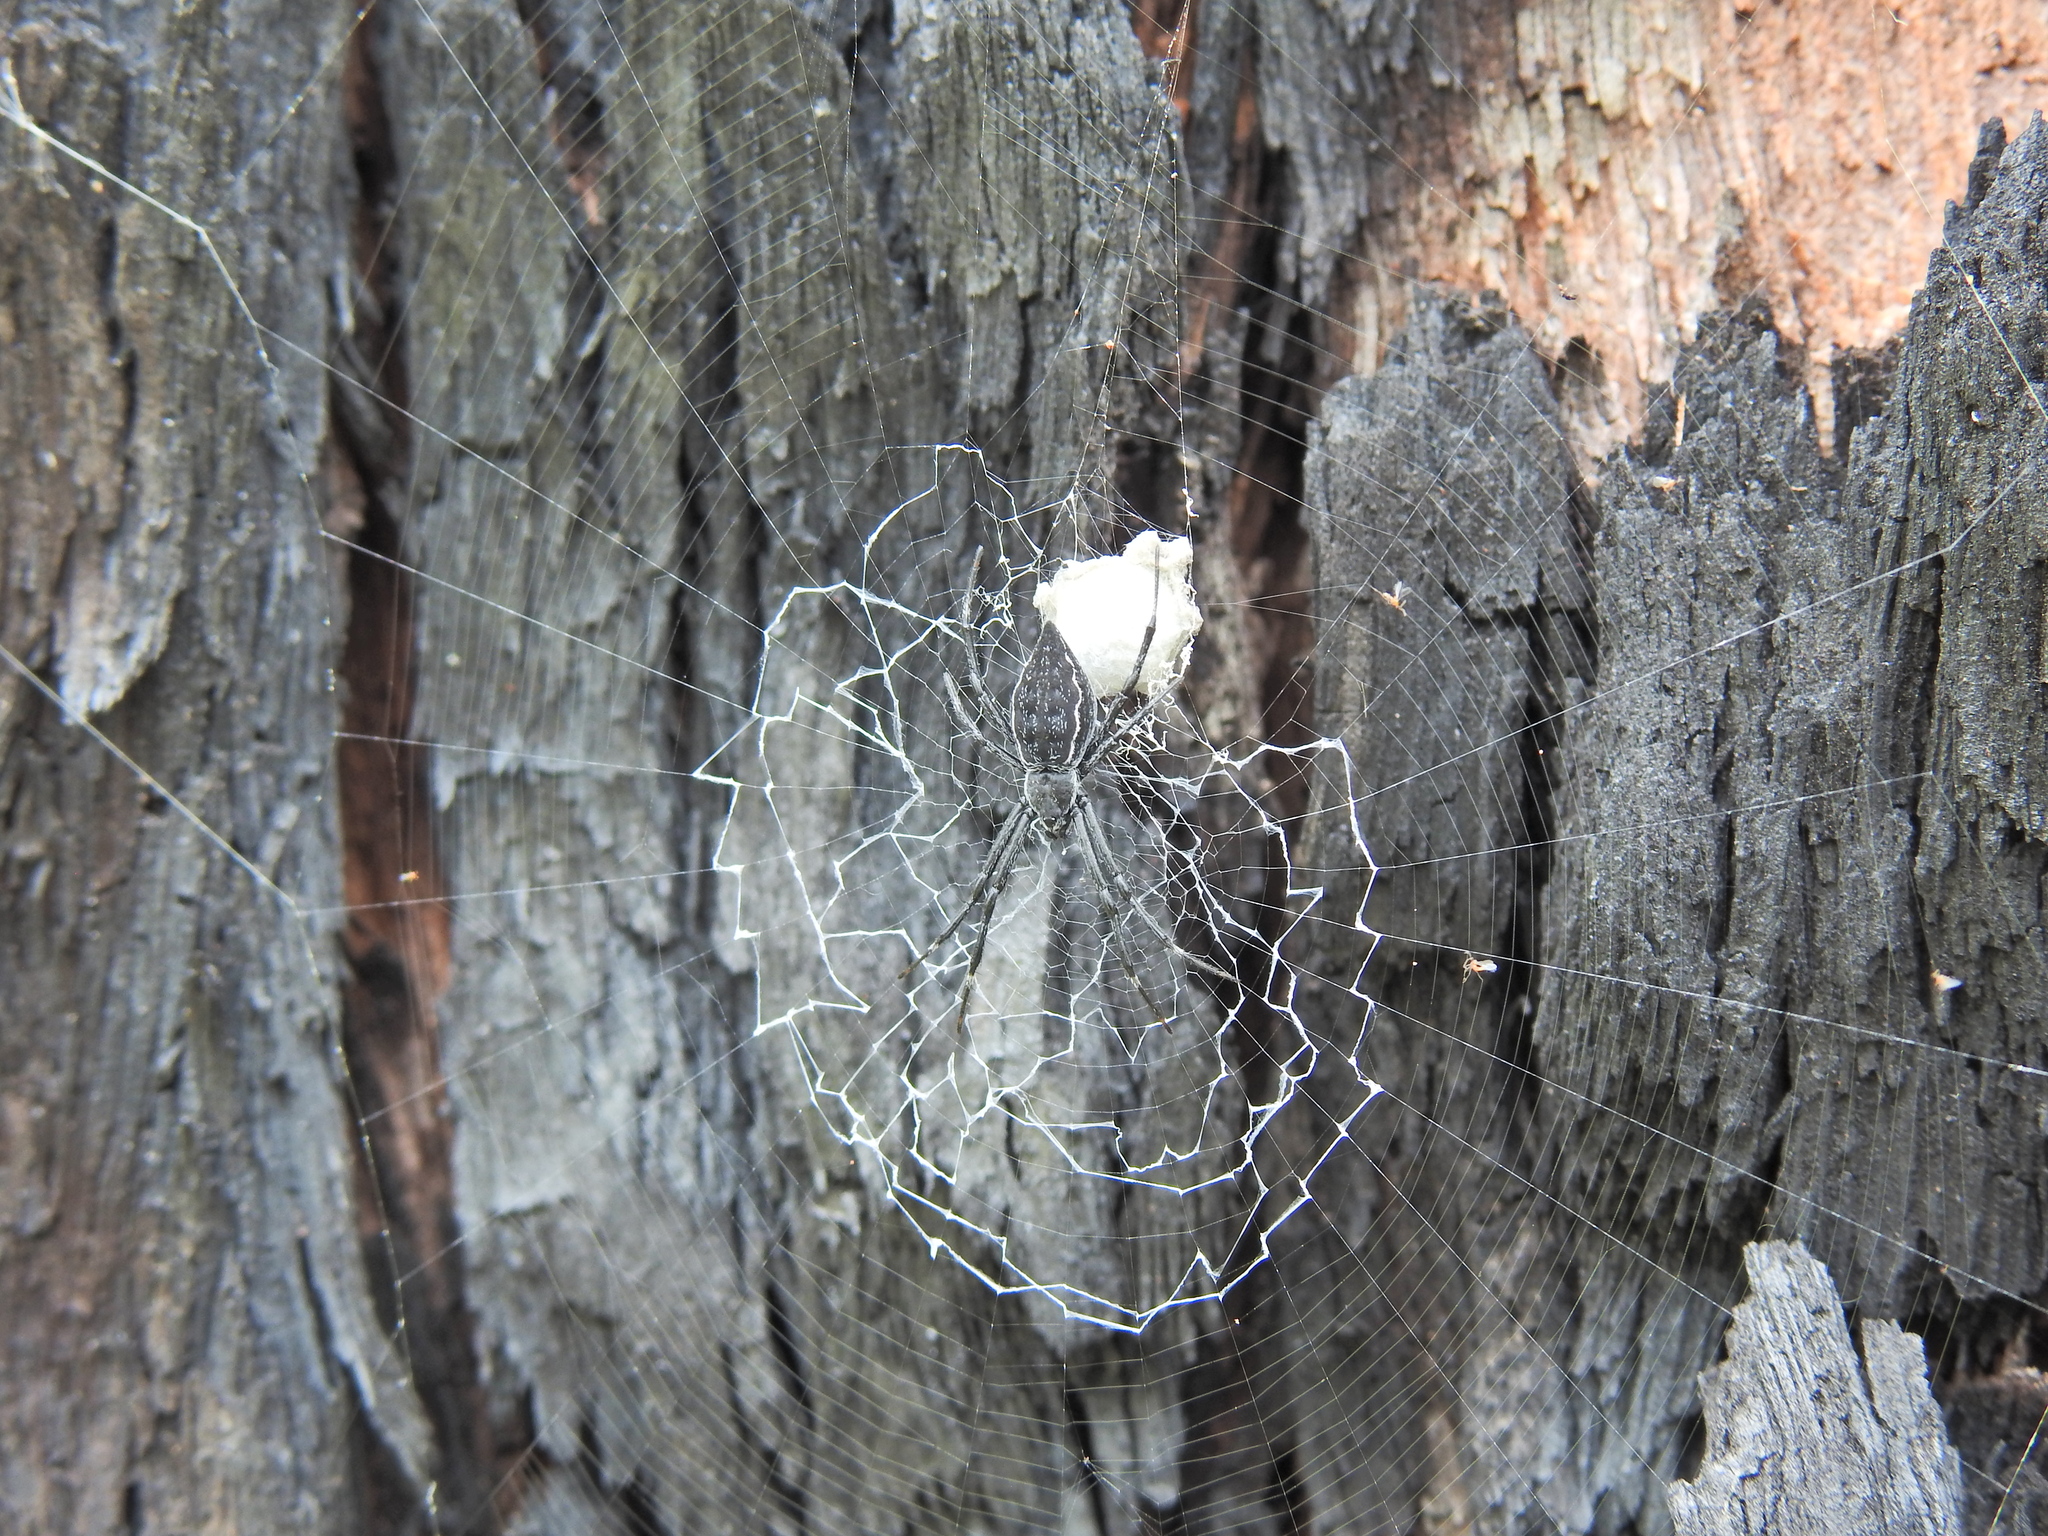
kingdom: Animalia
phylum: Arthropoda
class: Arachnida
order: Araneae
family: Araneidae
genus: Argiope
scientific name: Argiope ocyaloides
